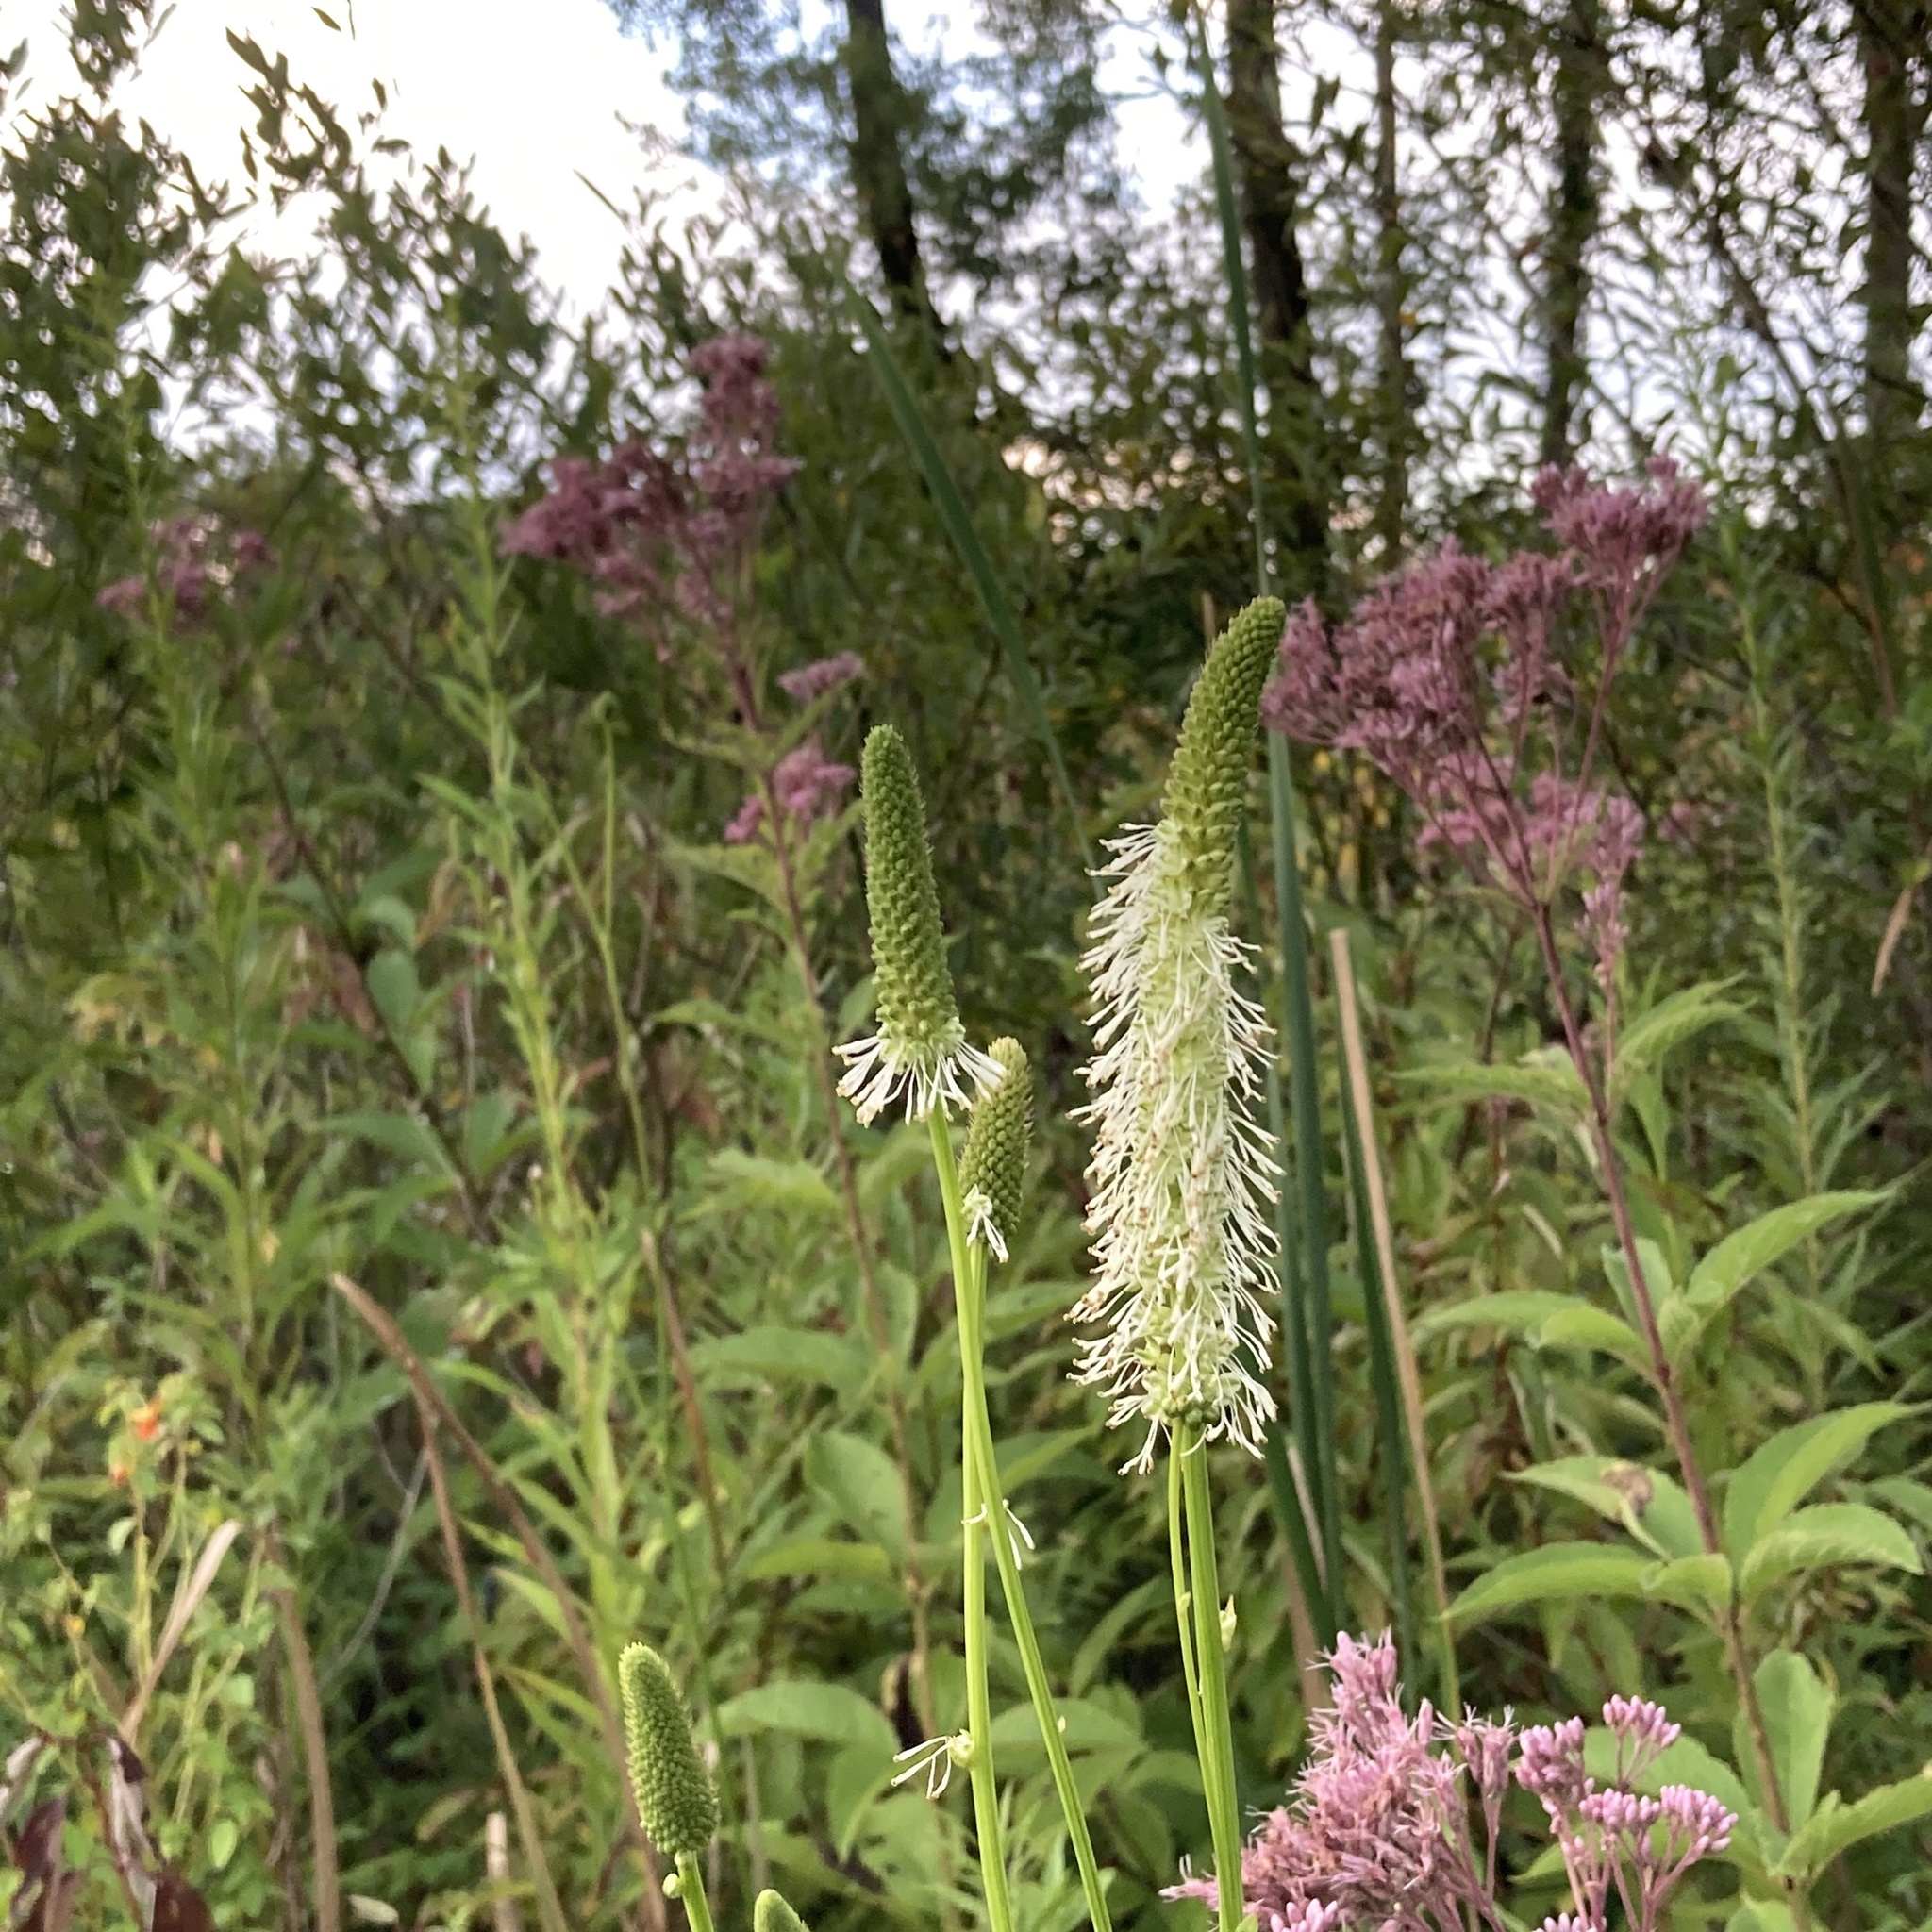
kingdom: Plantae
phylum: Tracheophyta
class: Magnoliopsida
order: Rosales
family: Rosaceae
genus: Sanguisorba
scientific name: Sanguisorba canadensis
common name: White burnet
